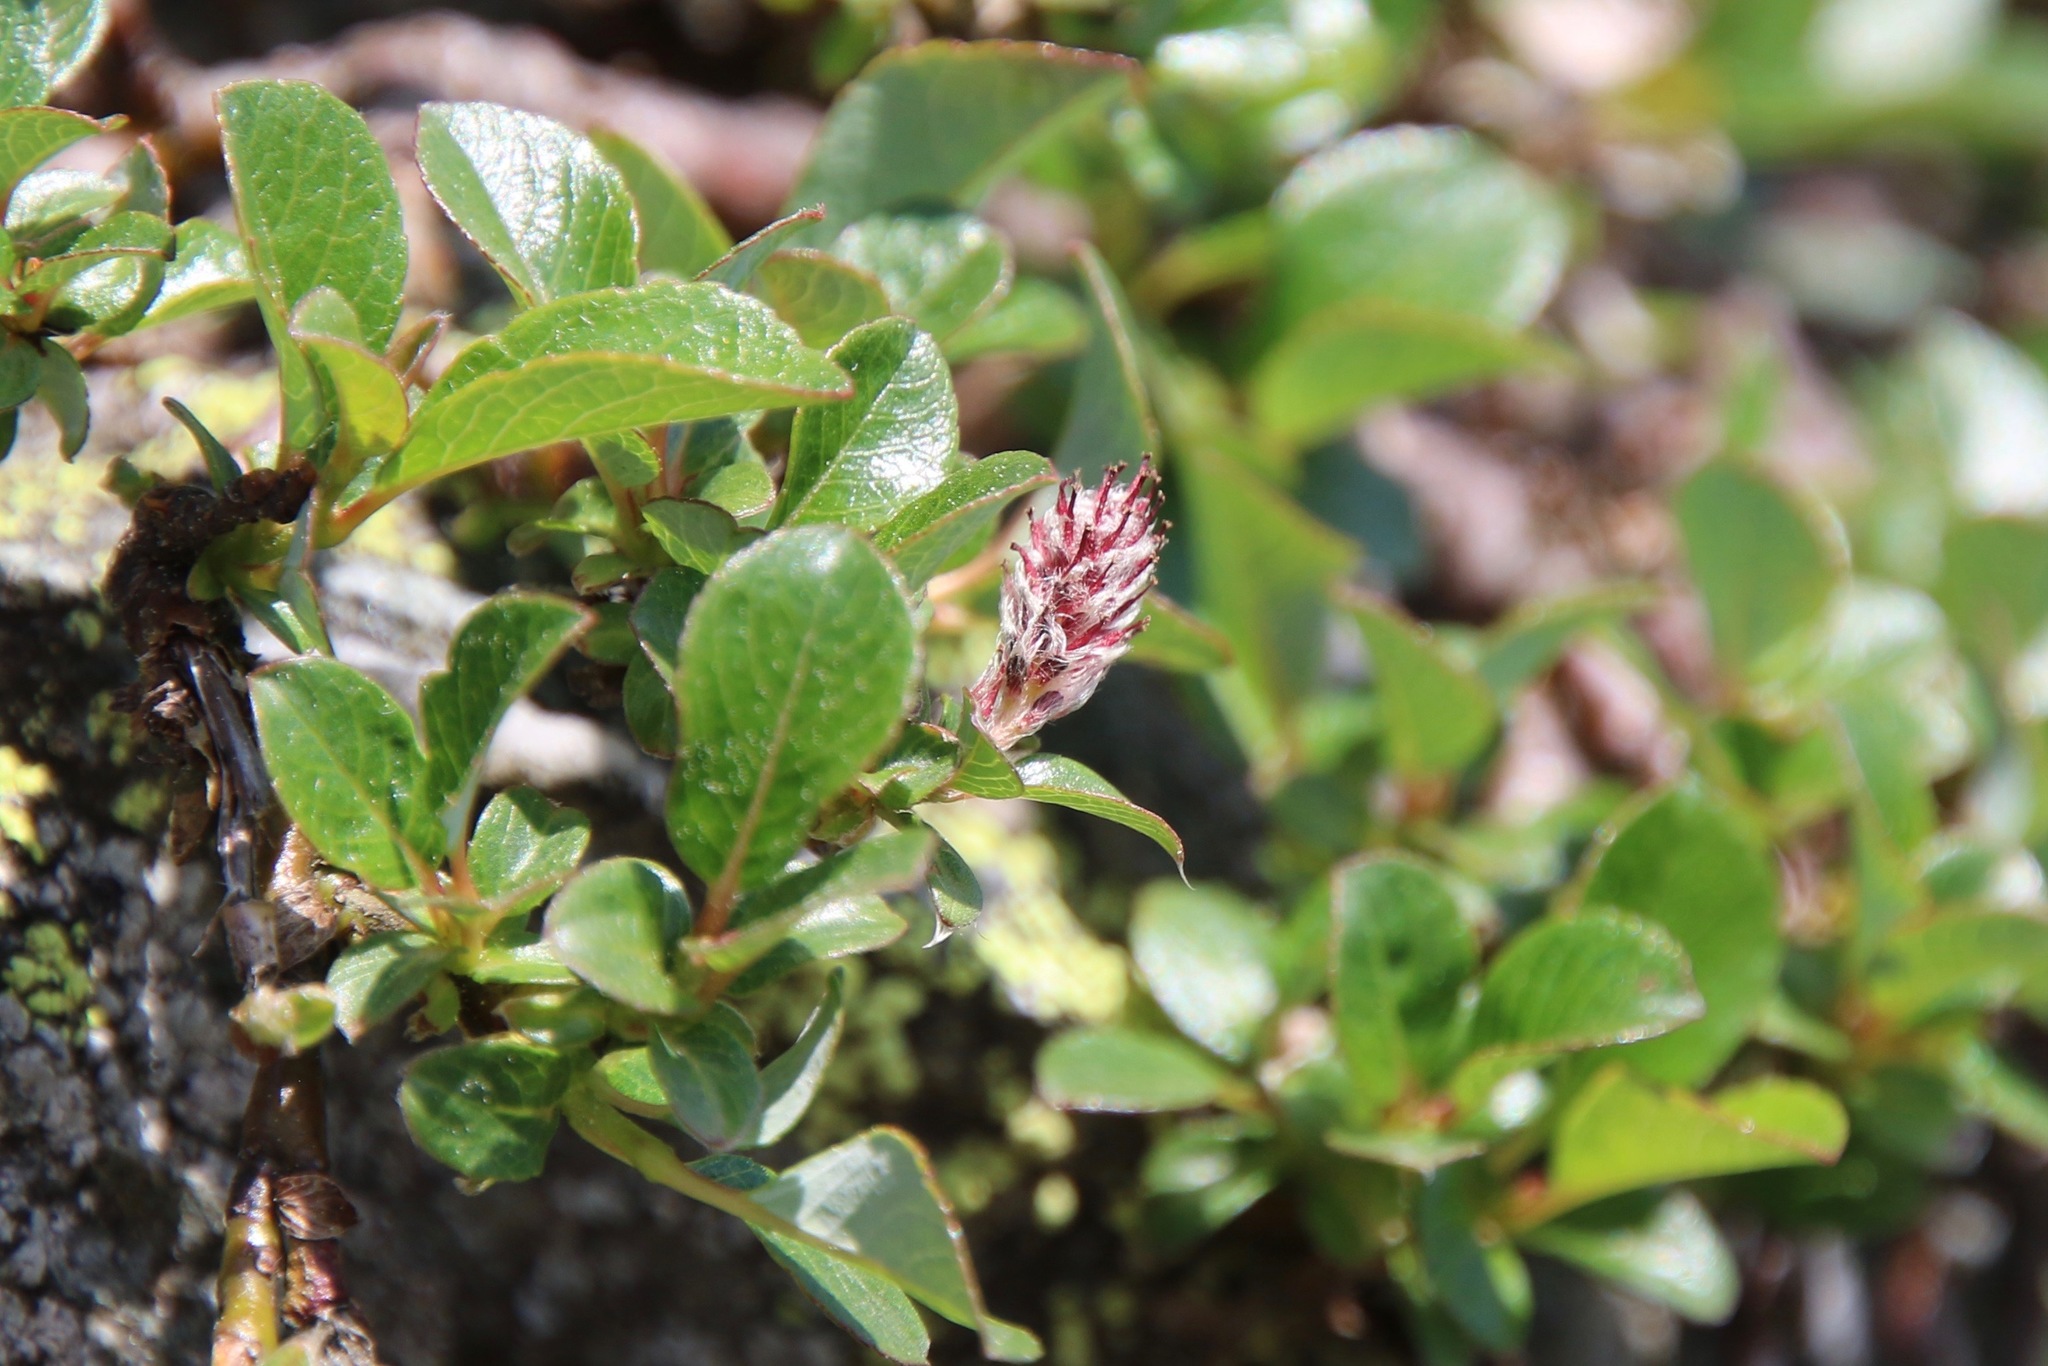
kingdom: Plantae
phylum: Tracheophyta
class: Magnoliopsida
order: Malpighiales
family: Salicaceae
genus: Salix
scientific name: Salix uva-ursi
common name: Bearberry willow
